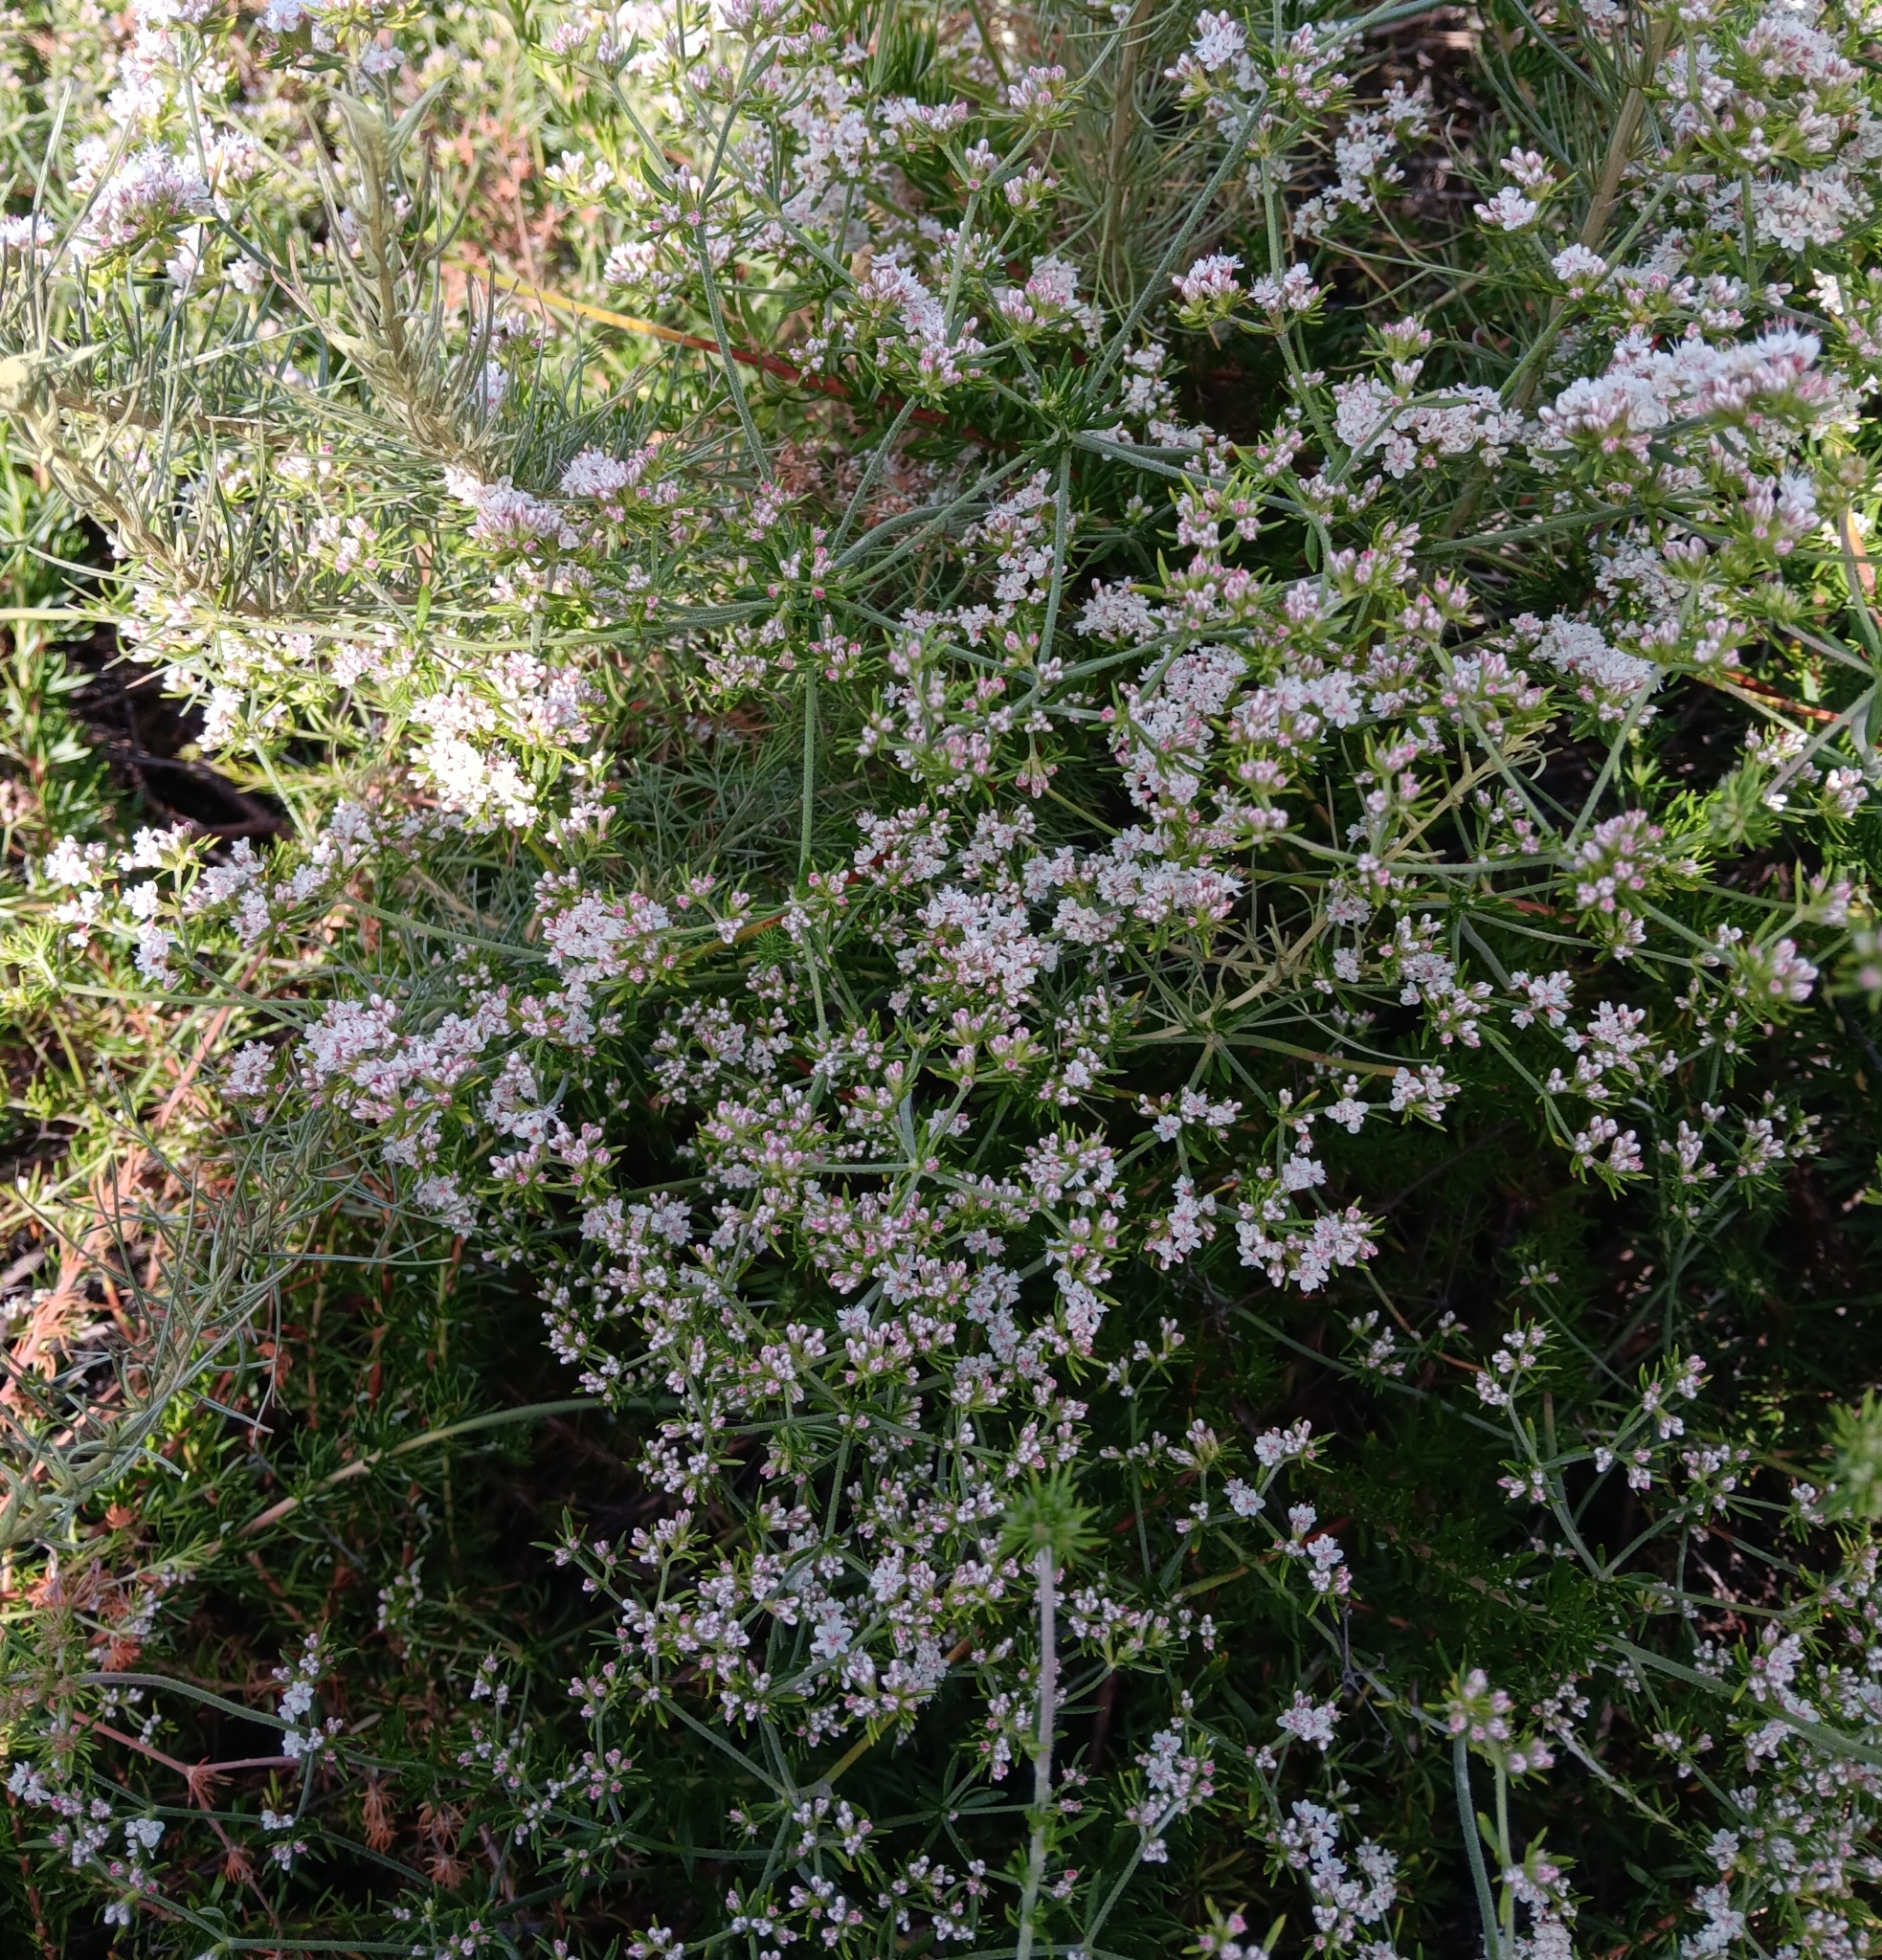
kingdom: Plantae
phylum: Tracheophyta
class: Magnoliopsida
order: Caryophyllales
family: Polygonaceae
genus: Eriogonum
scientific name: Eriogonum fasciculatum
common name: California wild buckwheat
